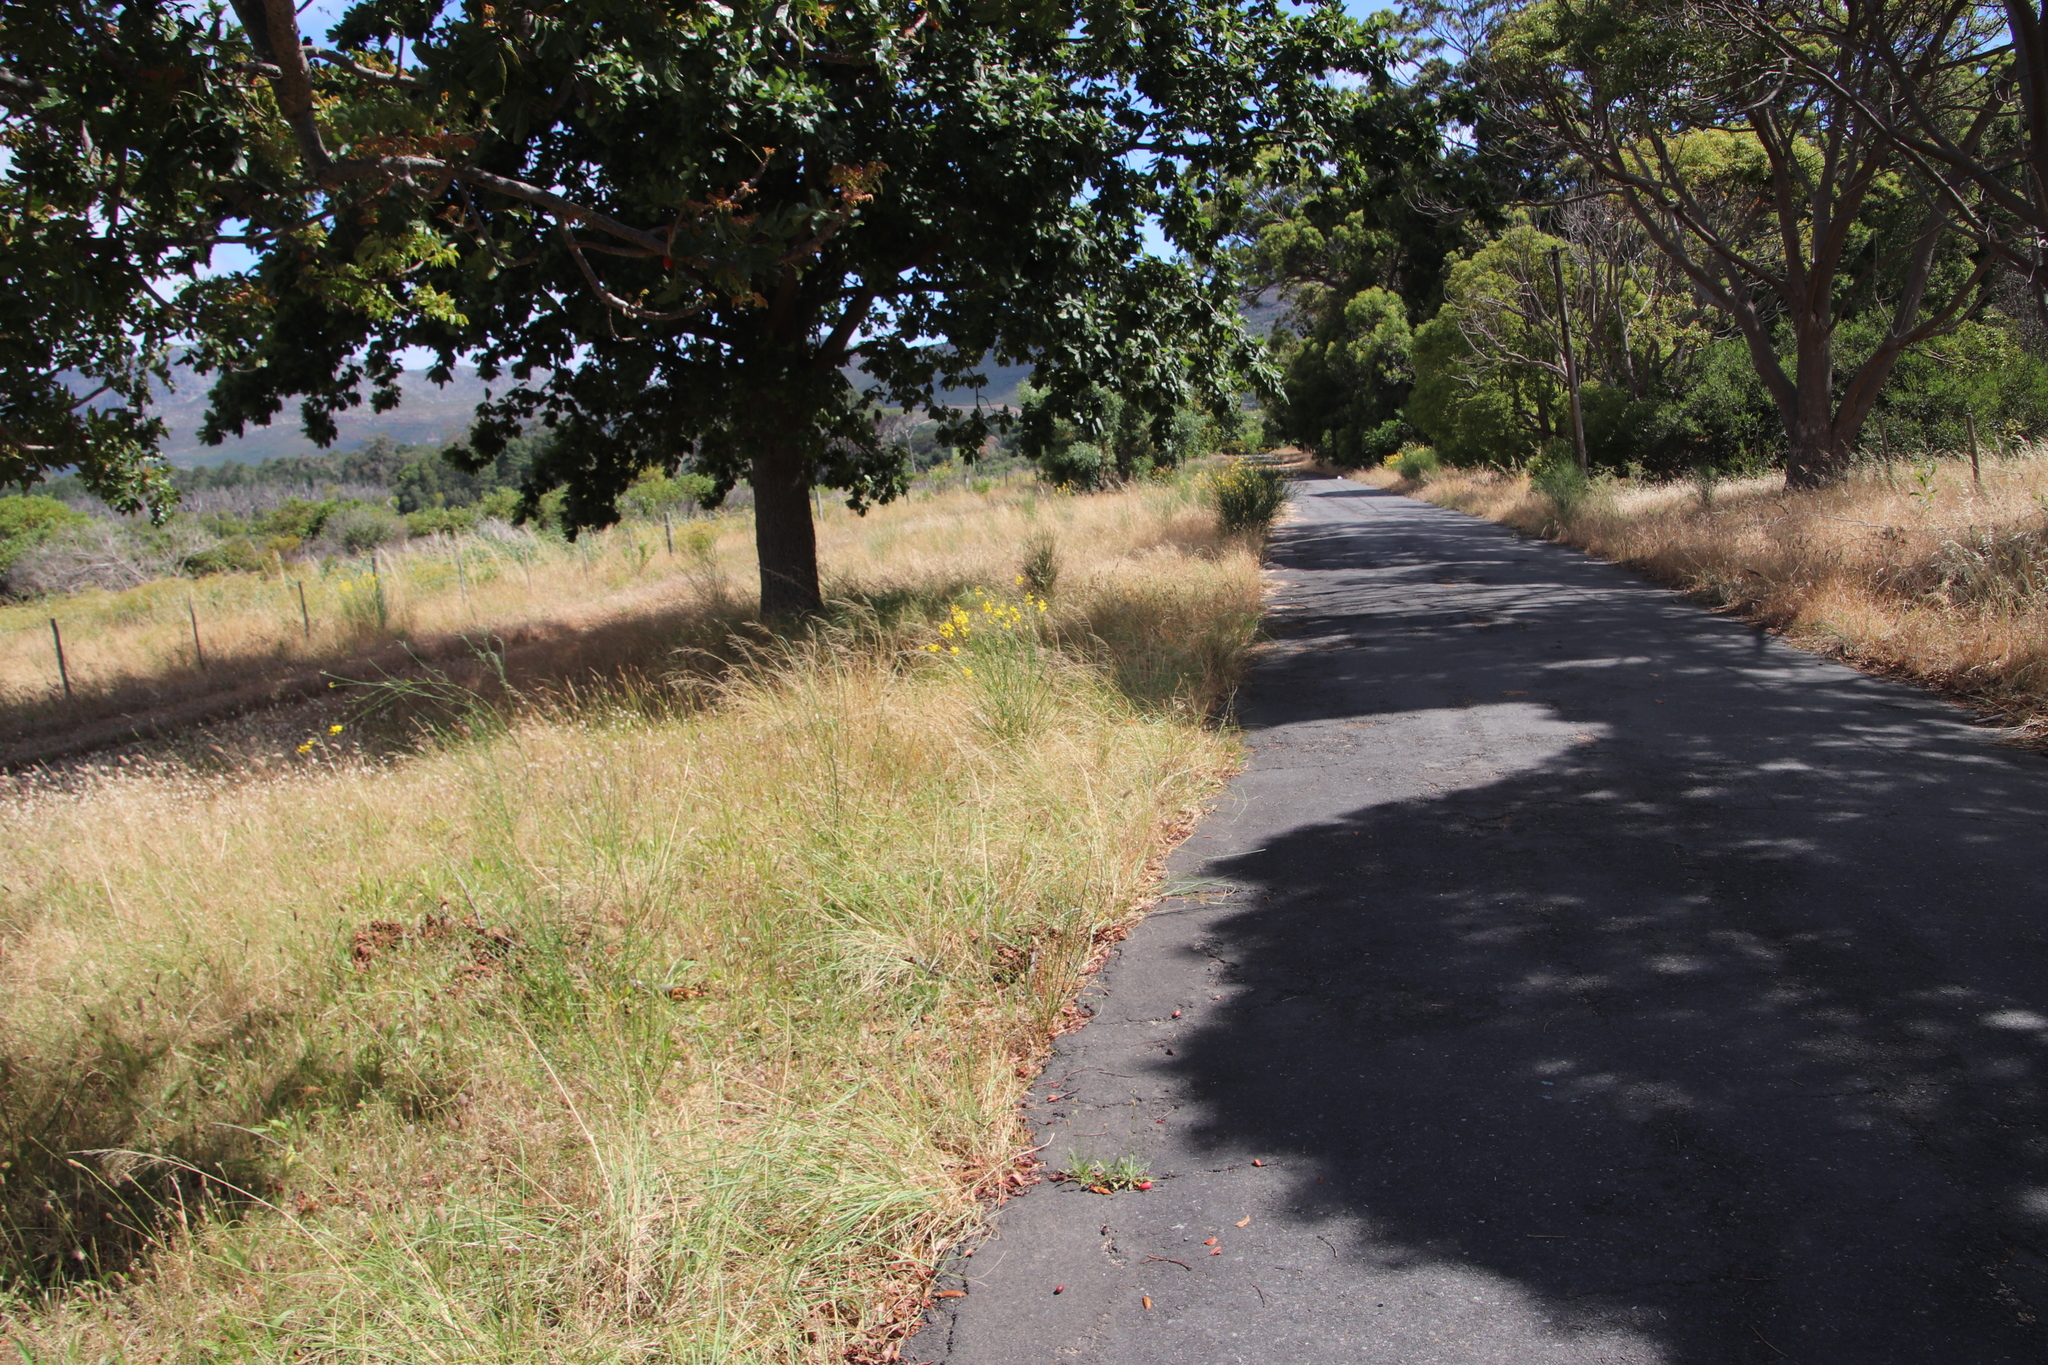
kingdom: Plantae
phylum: Tracheophyta
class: Magnoliopsida
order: Fabales
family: Fabaceae
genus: Spartium
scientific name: Spartium junceum
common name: Spanish broom
